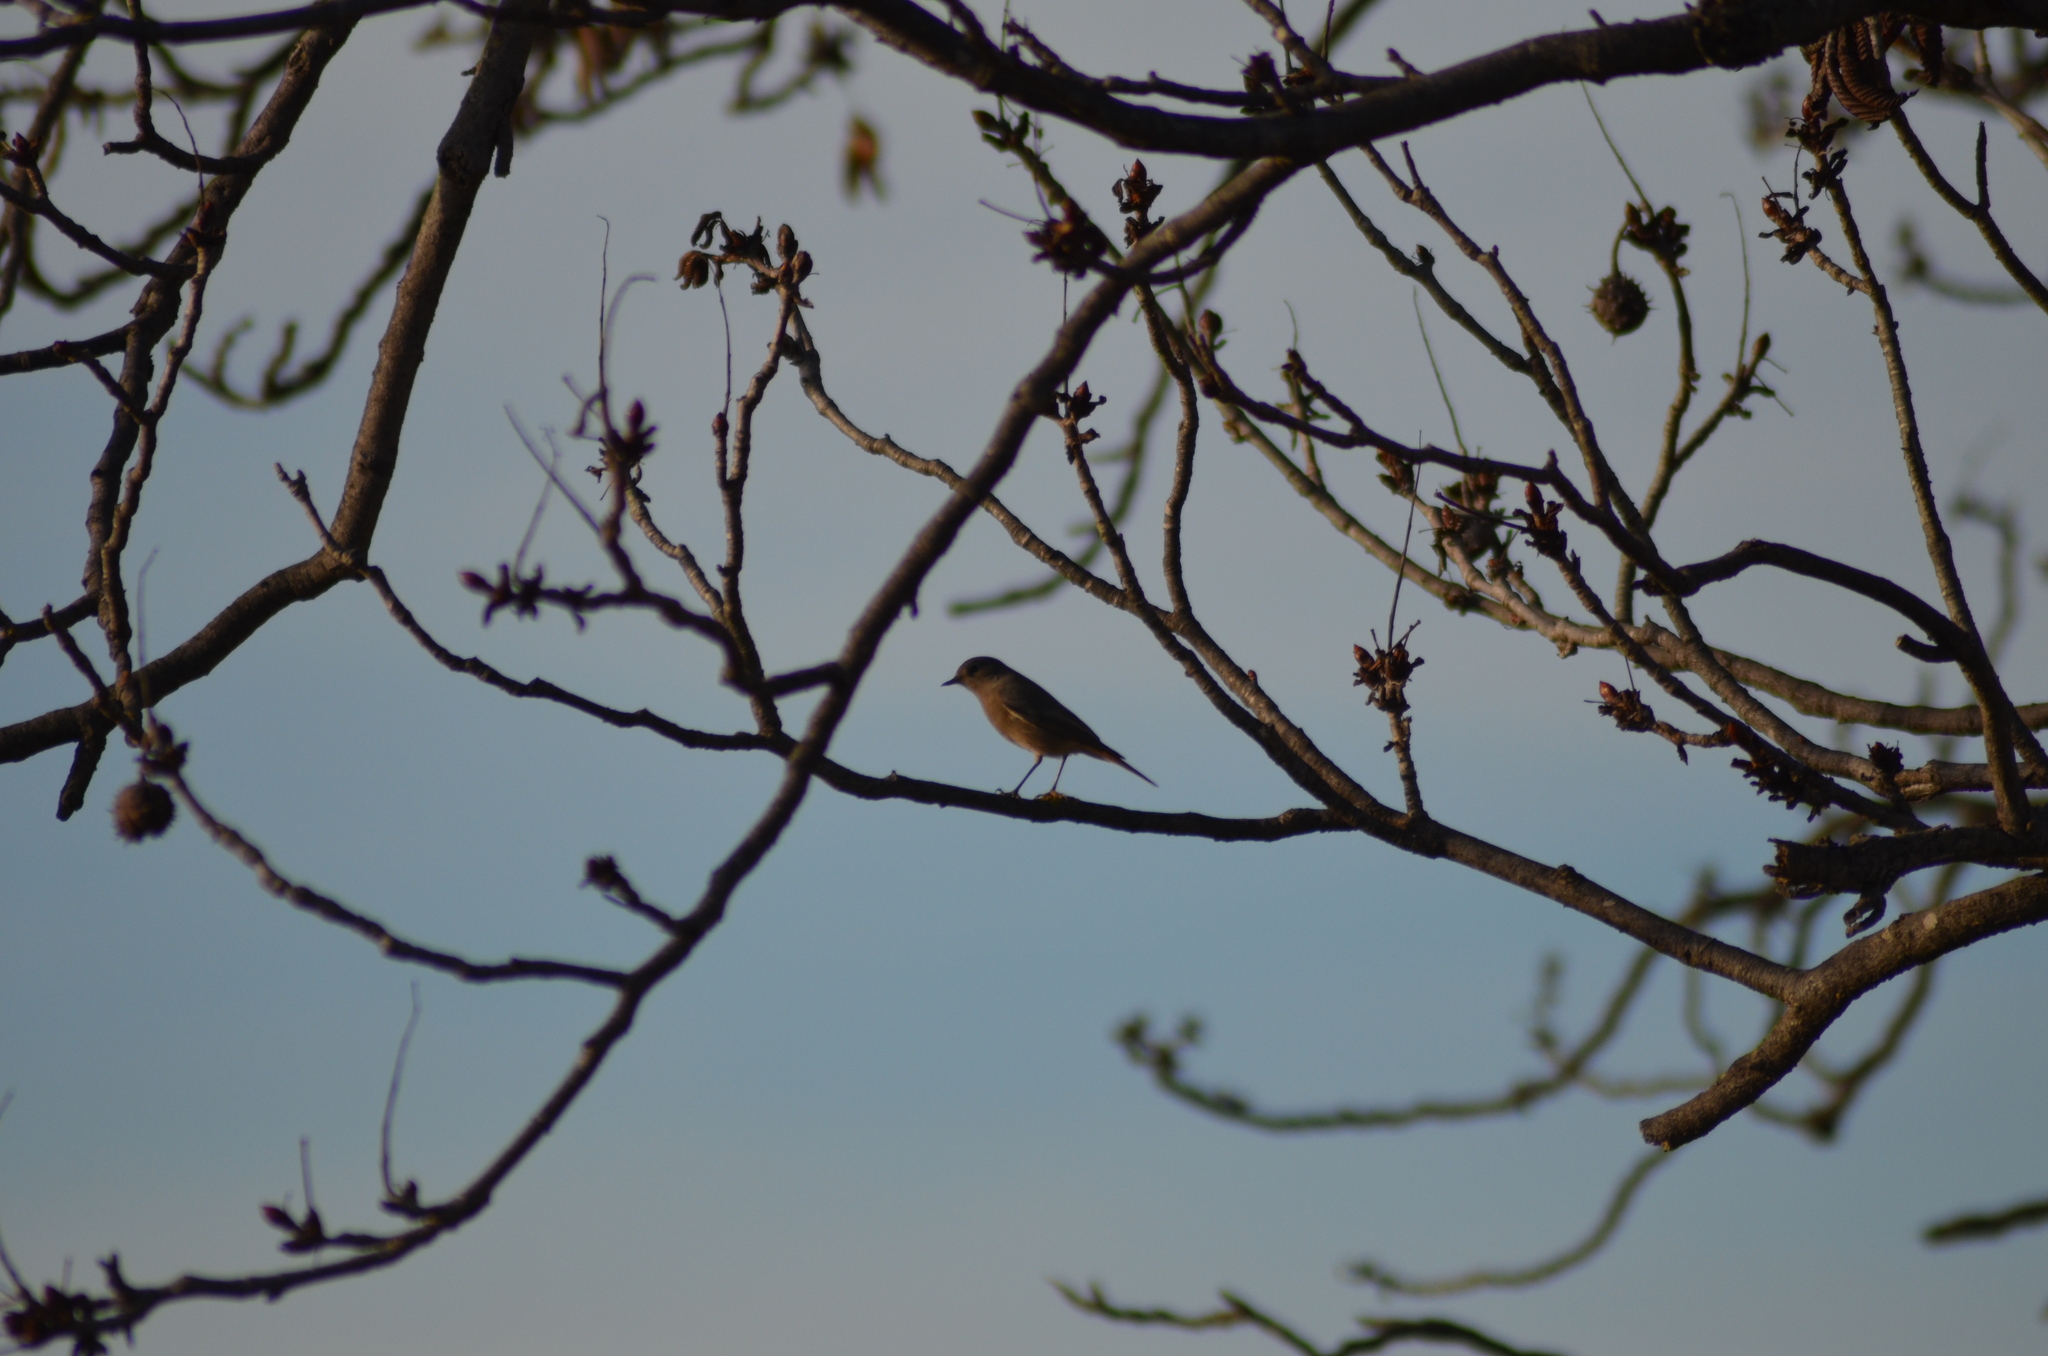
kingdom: Animalia
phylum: Chordata
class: Aves
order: Passeriformes
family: Muscicapidae
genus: Phoenicurus
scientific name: Phoenicurus ochruros
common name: Black redstart
